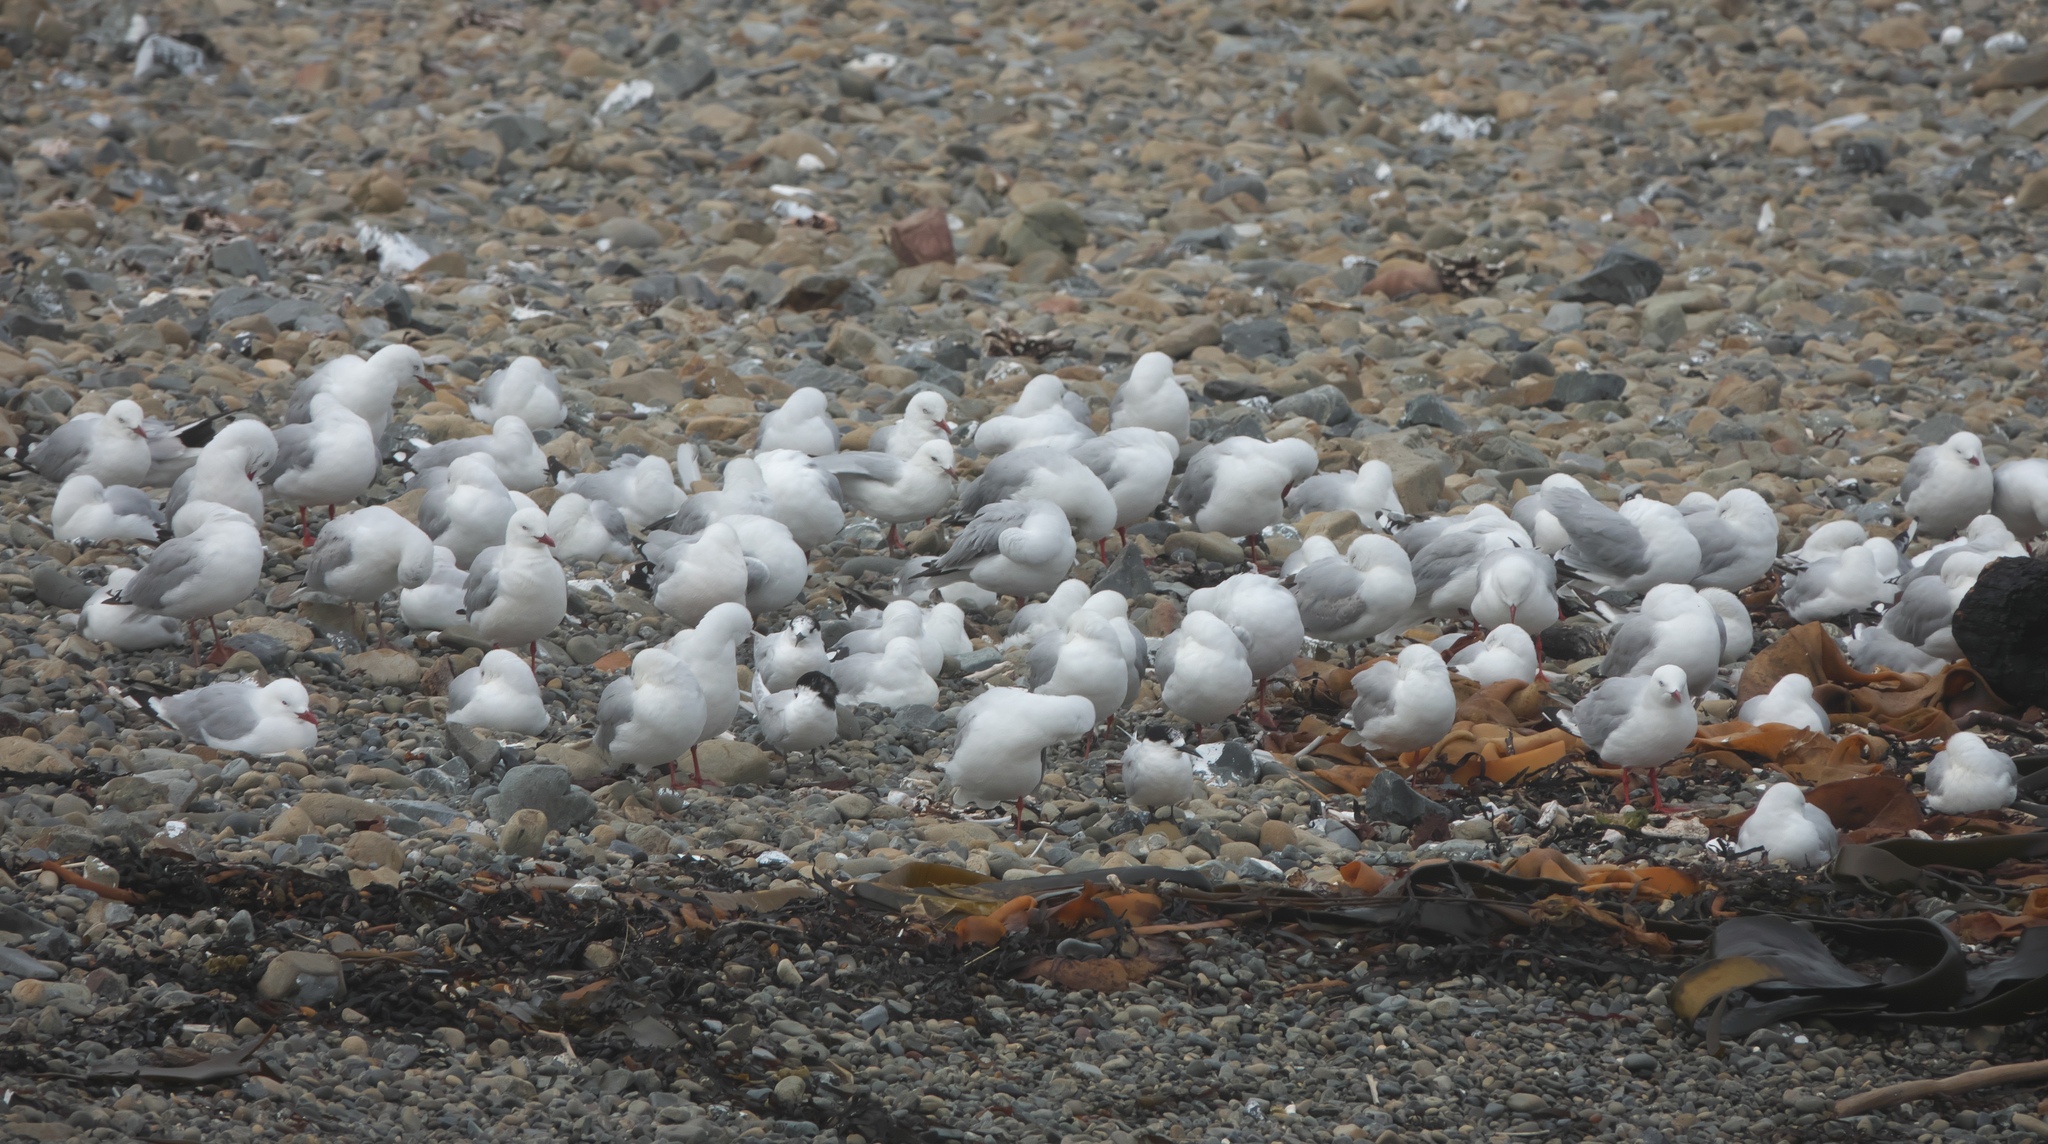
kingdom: Animalia
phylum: Chordata
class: Aves
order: Charadriiformes
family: Laridae
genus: Chroicocephalus
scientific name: Chroicocephalus novaehollandiae
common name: Silver gull
